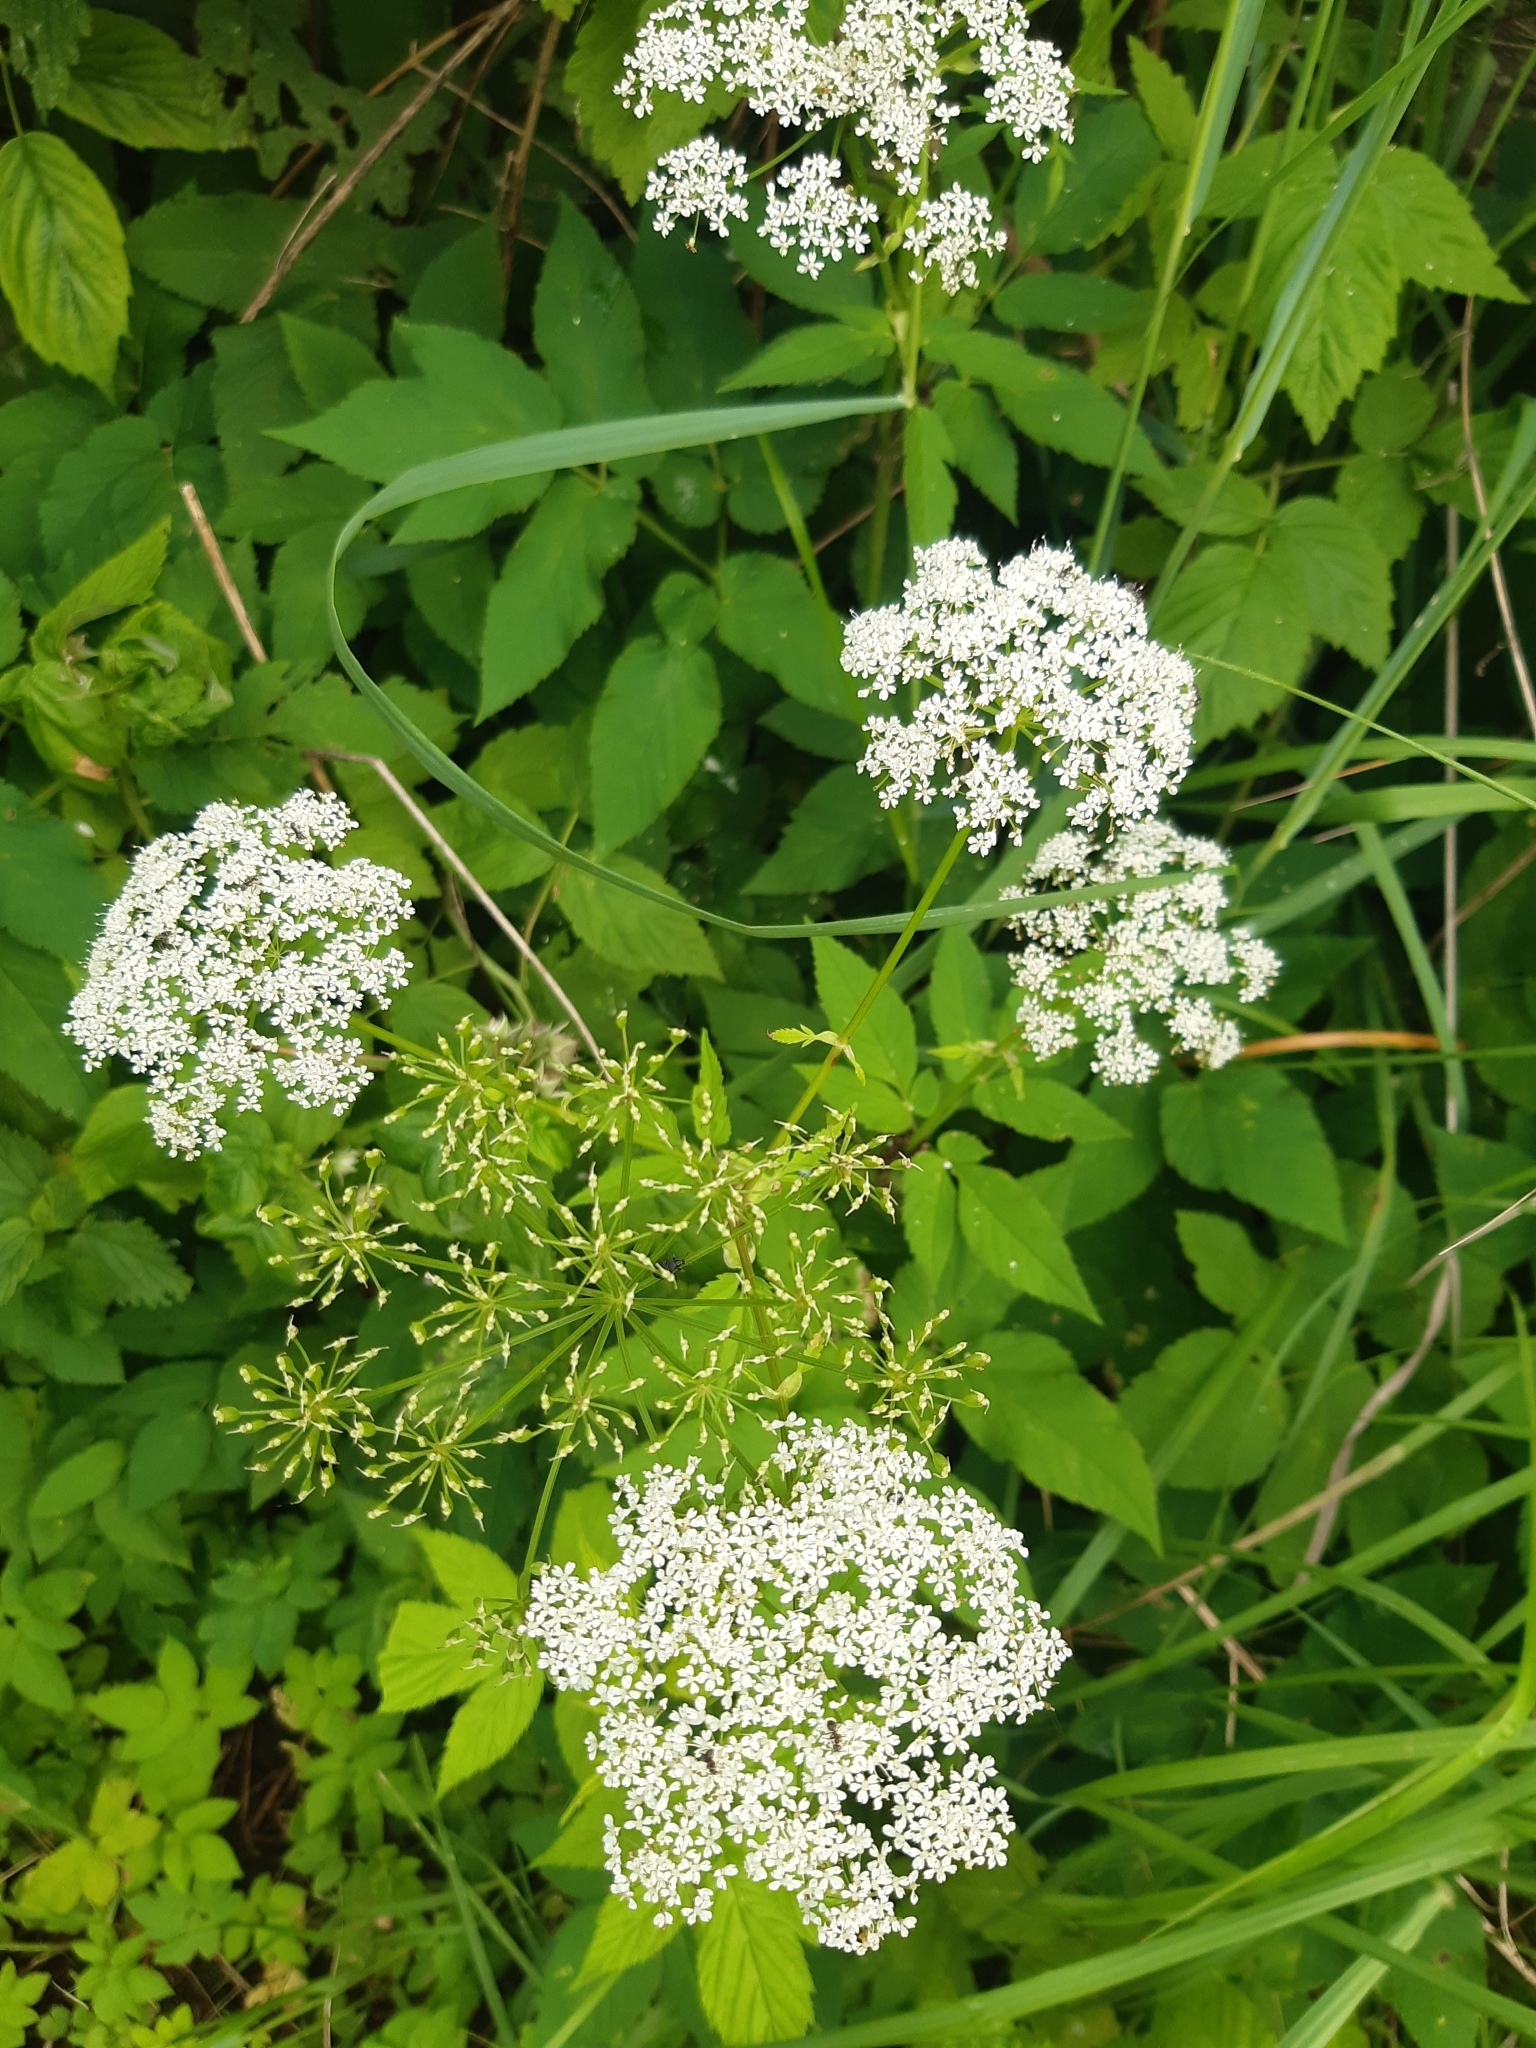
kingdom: Plantae
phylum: Tracheophyta
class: Magnoliopsida
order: Apiales
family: Apiaceae
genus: Aegopodium
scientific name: Aegopodium podagraria
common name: Ground-elder
